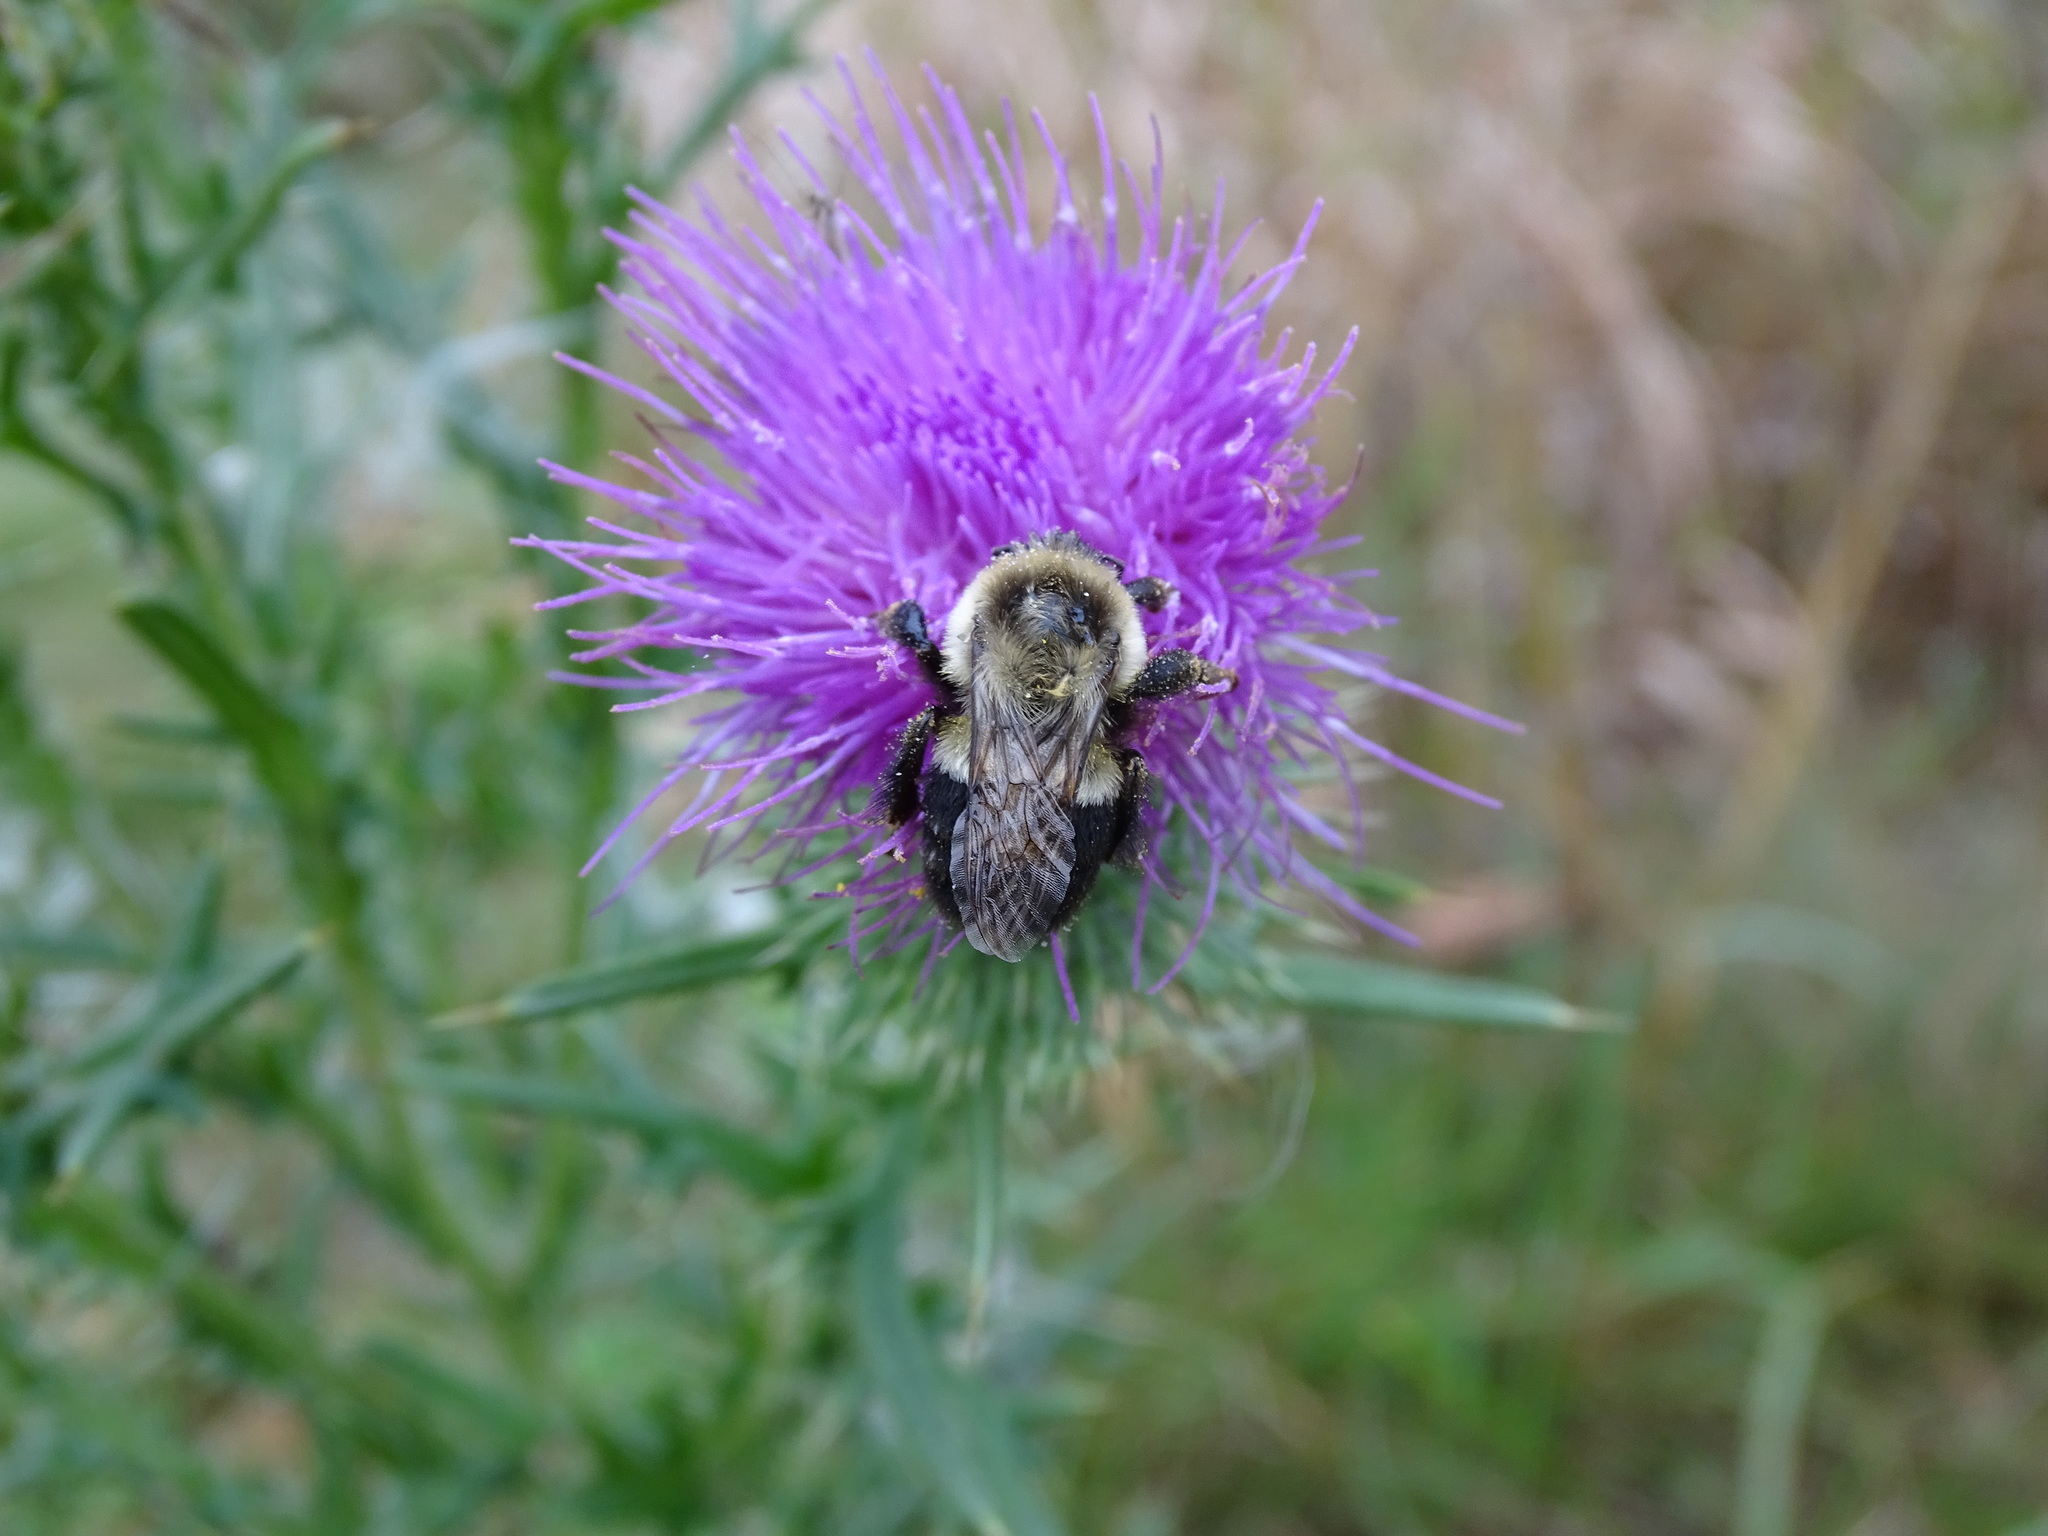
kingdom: Animalia
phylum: Arthropoda
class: Insecta
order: Hymenoptera
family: Apidae
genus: Bombus
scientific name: Bombus impatiens
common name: Common eastern bumble bee
